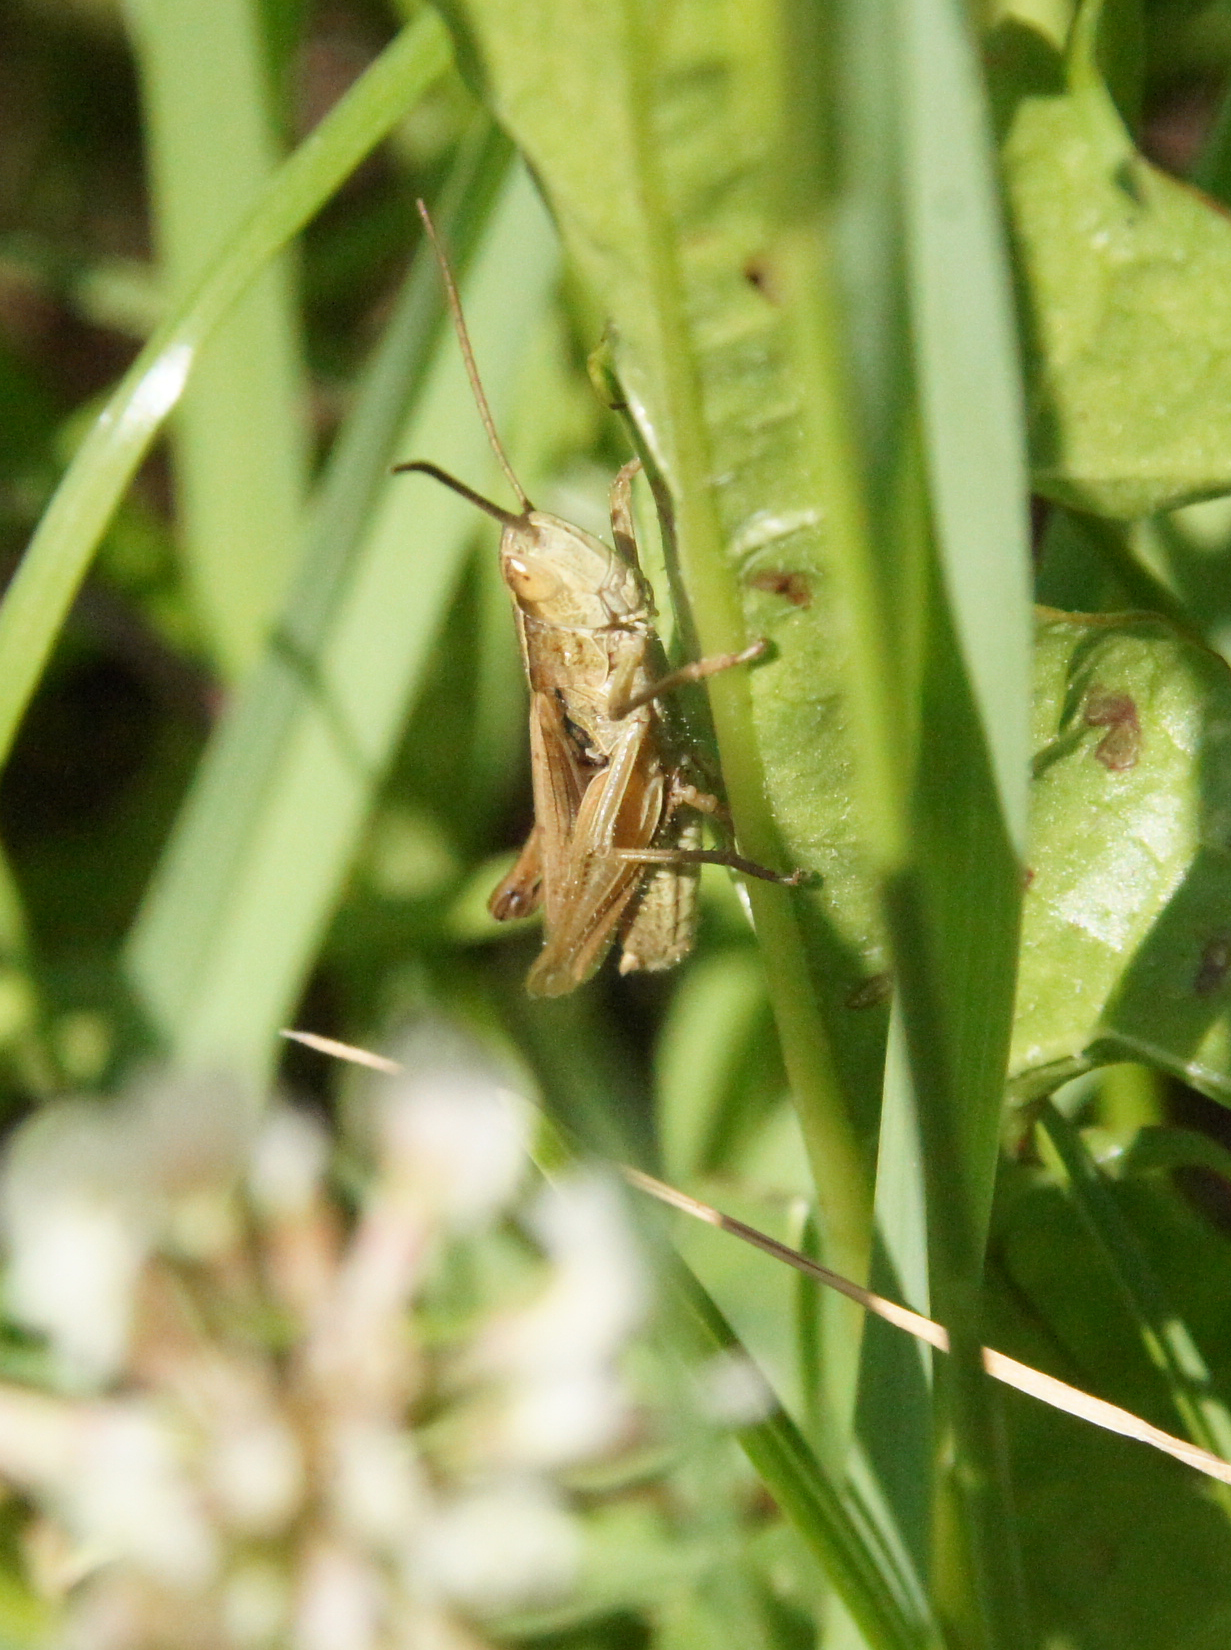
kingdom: Animalia
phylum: Arthropoda
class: Insecta
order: Orthoptera
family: Acrididae
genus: Chorthippus
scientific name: Chorthippus albomarginatus
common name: Lesser marsh grasshopper
